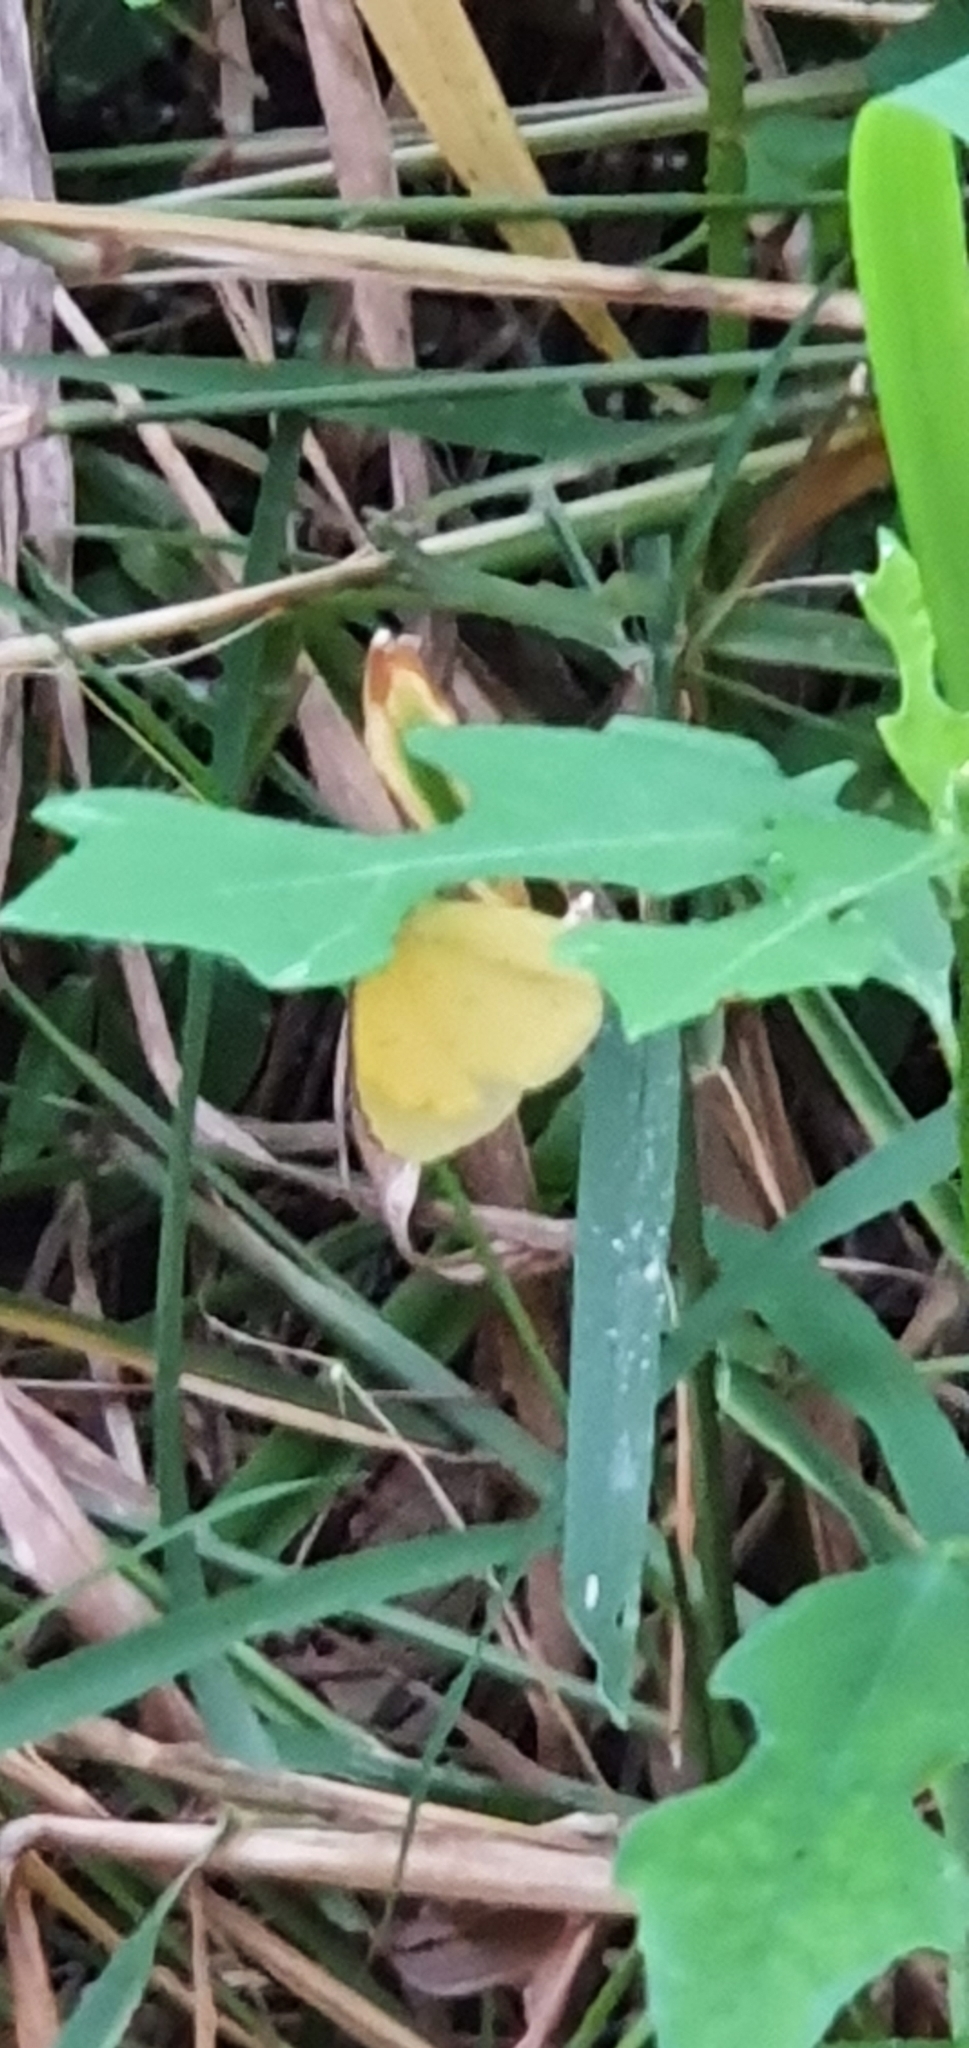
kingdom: Animalia
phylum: Arthropoda
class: Insecta
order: Lepidoptera
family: Pieridae
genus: Eurema
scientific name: Eurema hecabe
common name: Pale grass yellow
